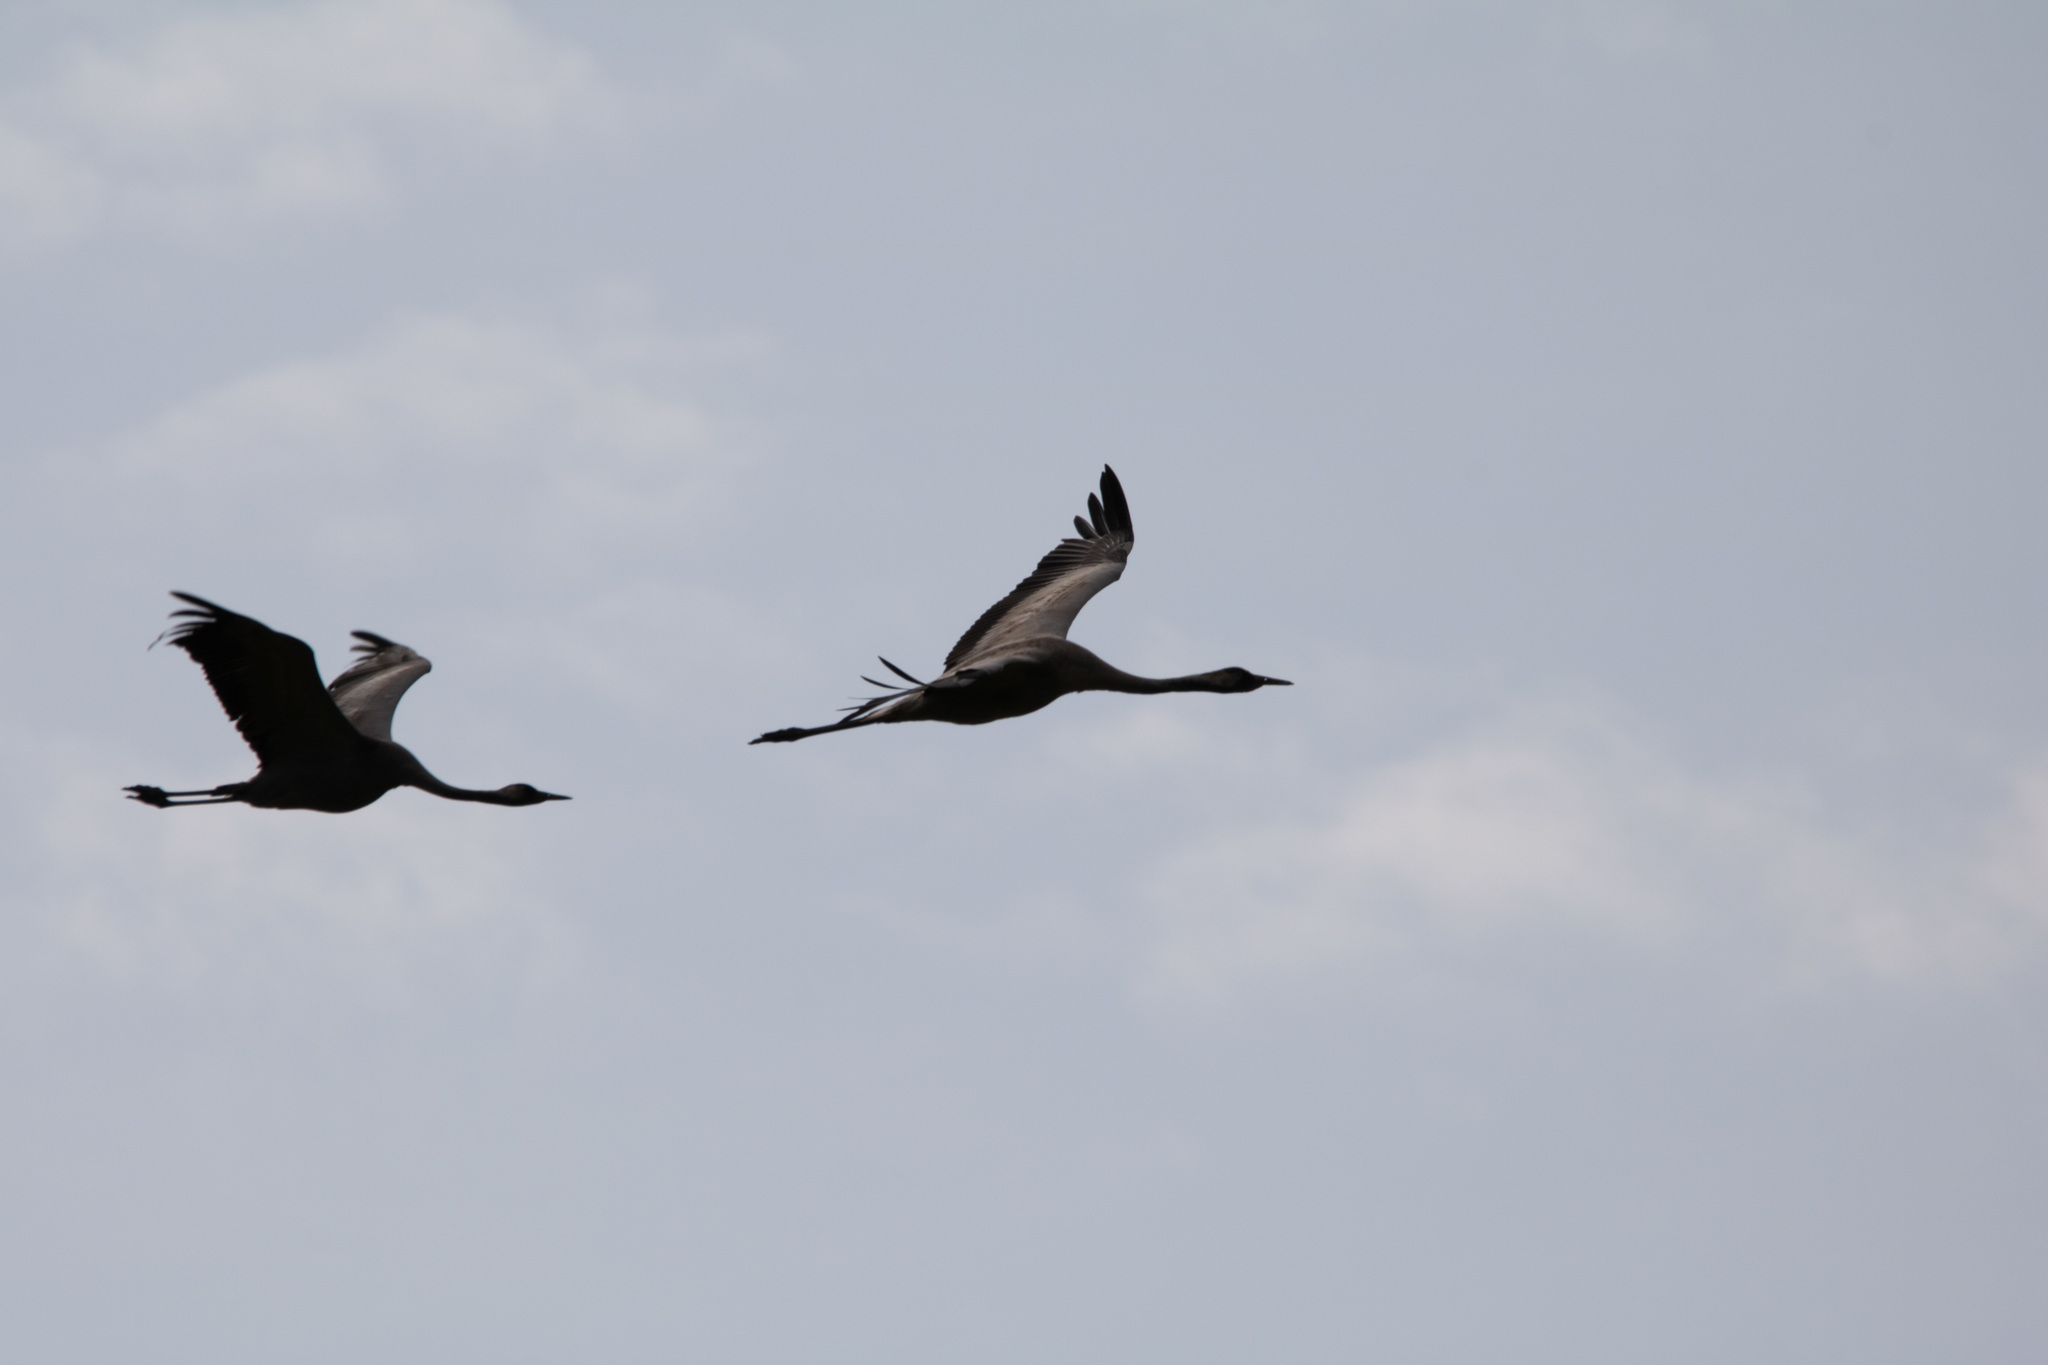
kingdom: Animalia
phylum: Chordata
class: Aves
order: Gruiformes
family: Gruidae
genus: Grus
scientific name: Grus grus
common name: Common crane
